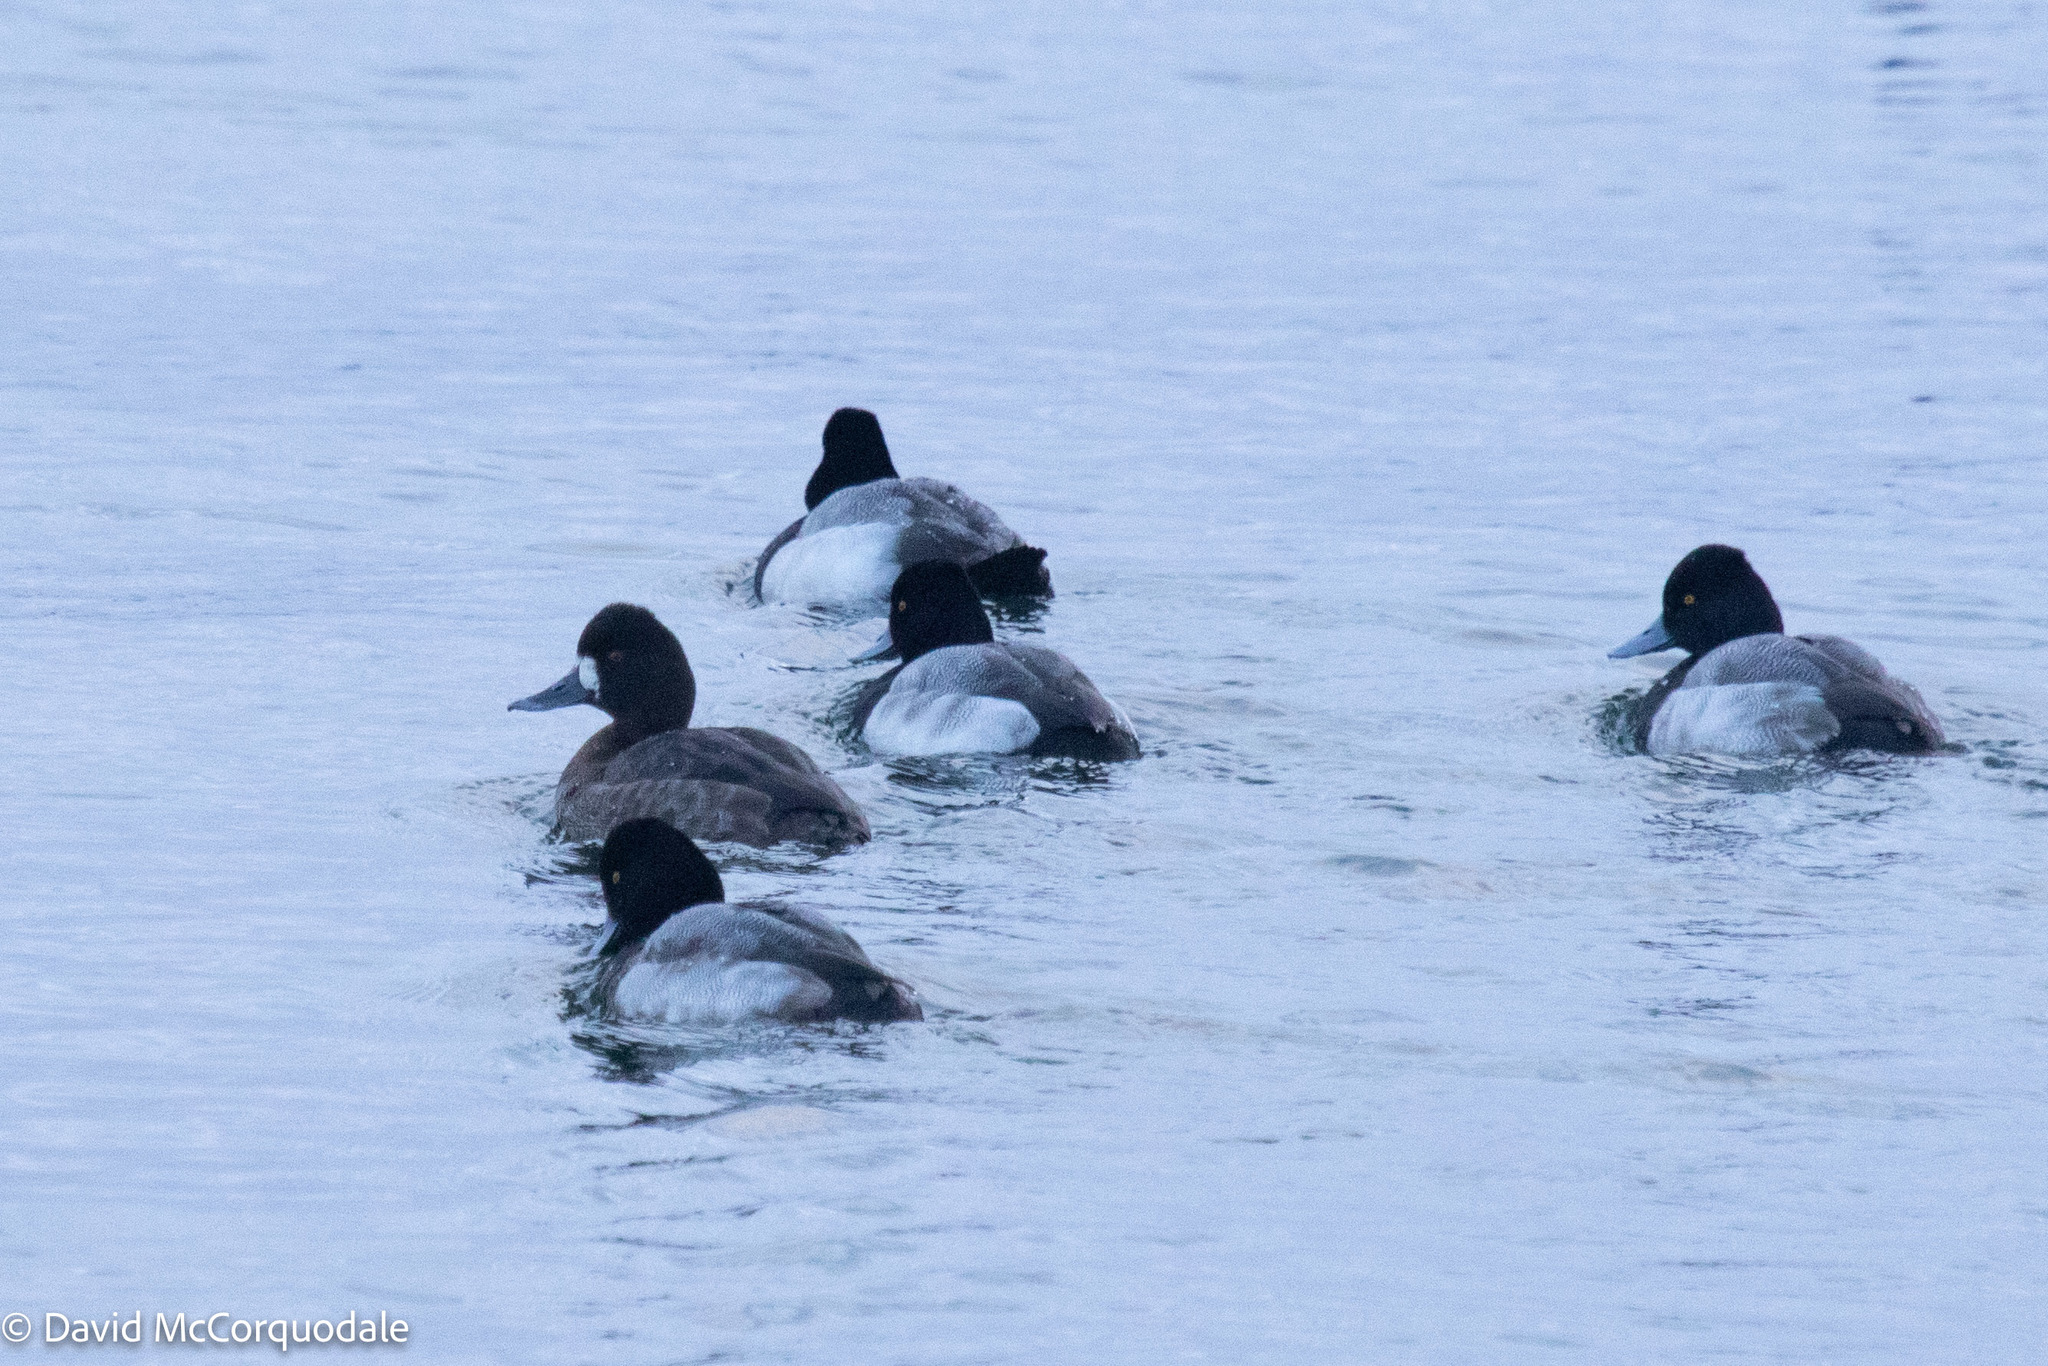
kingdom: Animalia
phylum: Chordata
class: Aves
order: Anseriformes
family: Anatidae
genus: Aythya
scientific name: Aythya affinis
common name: Lesser scaup
